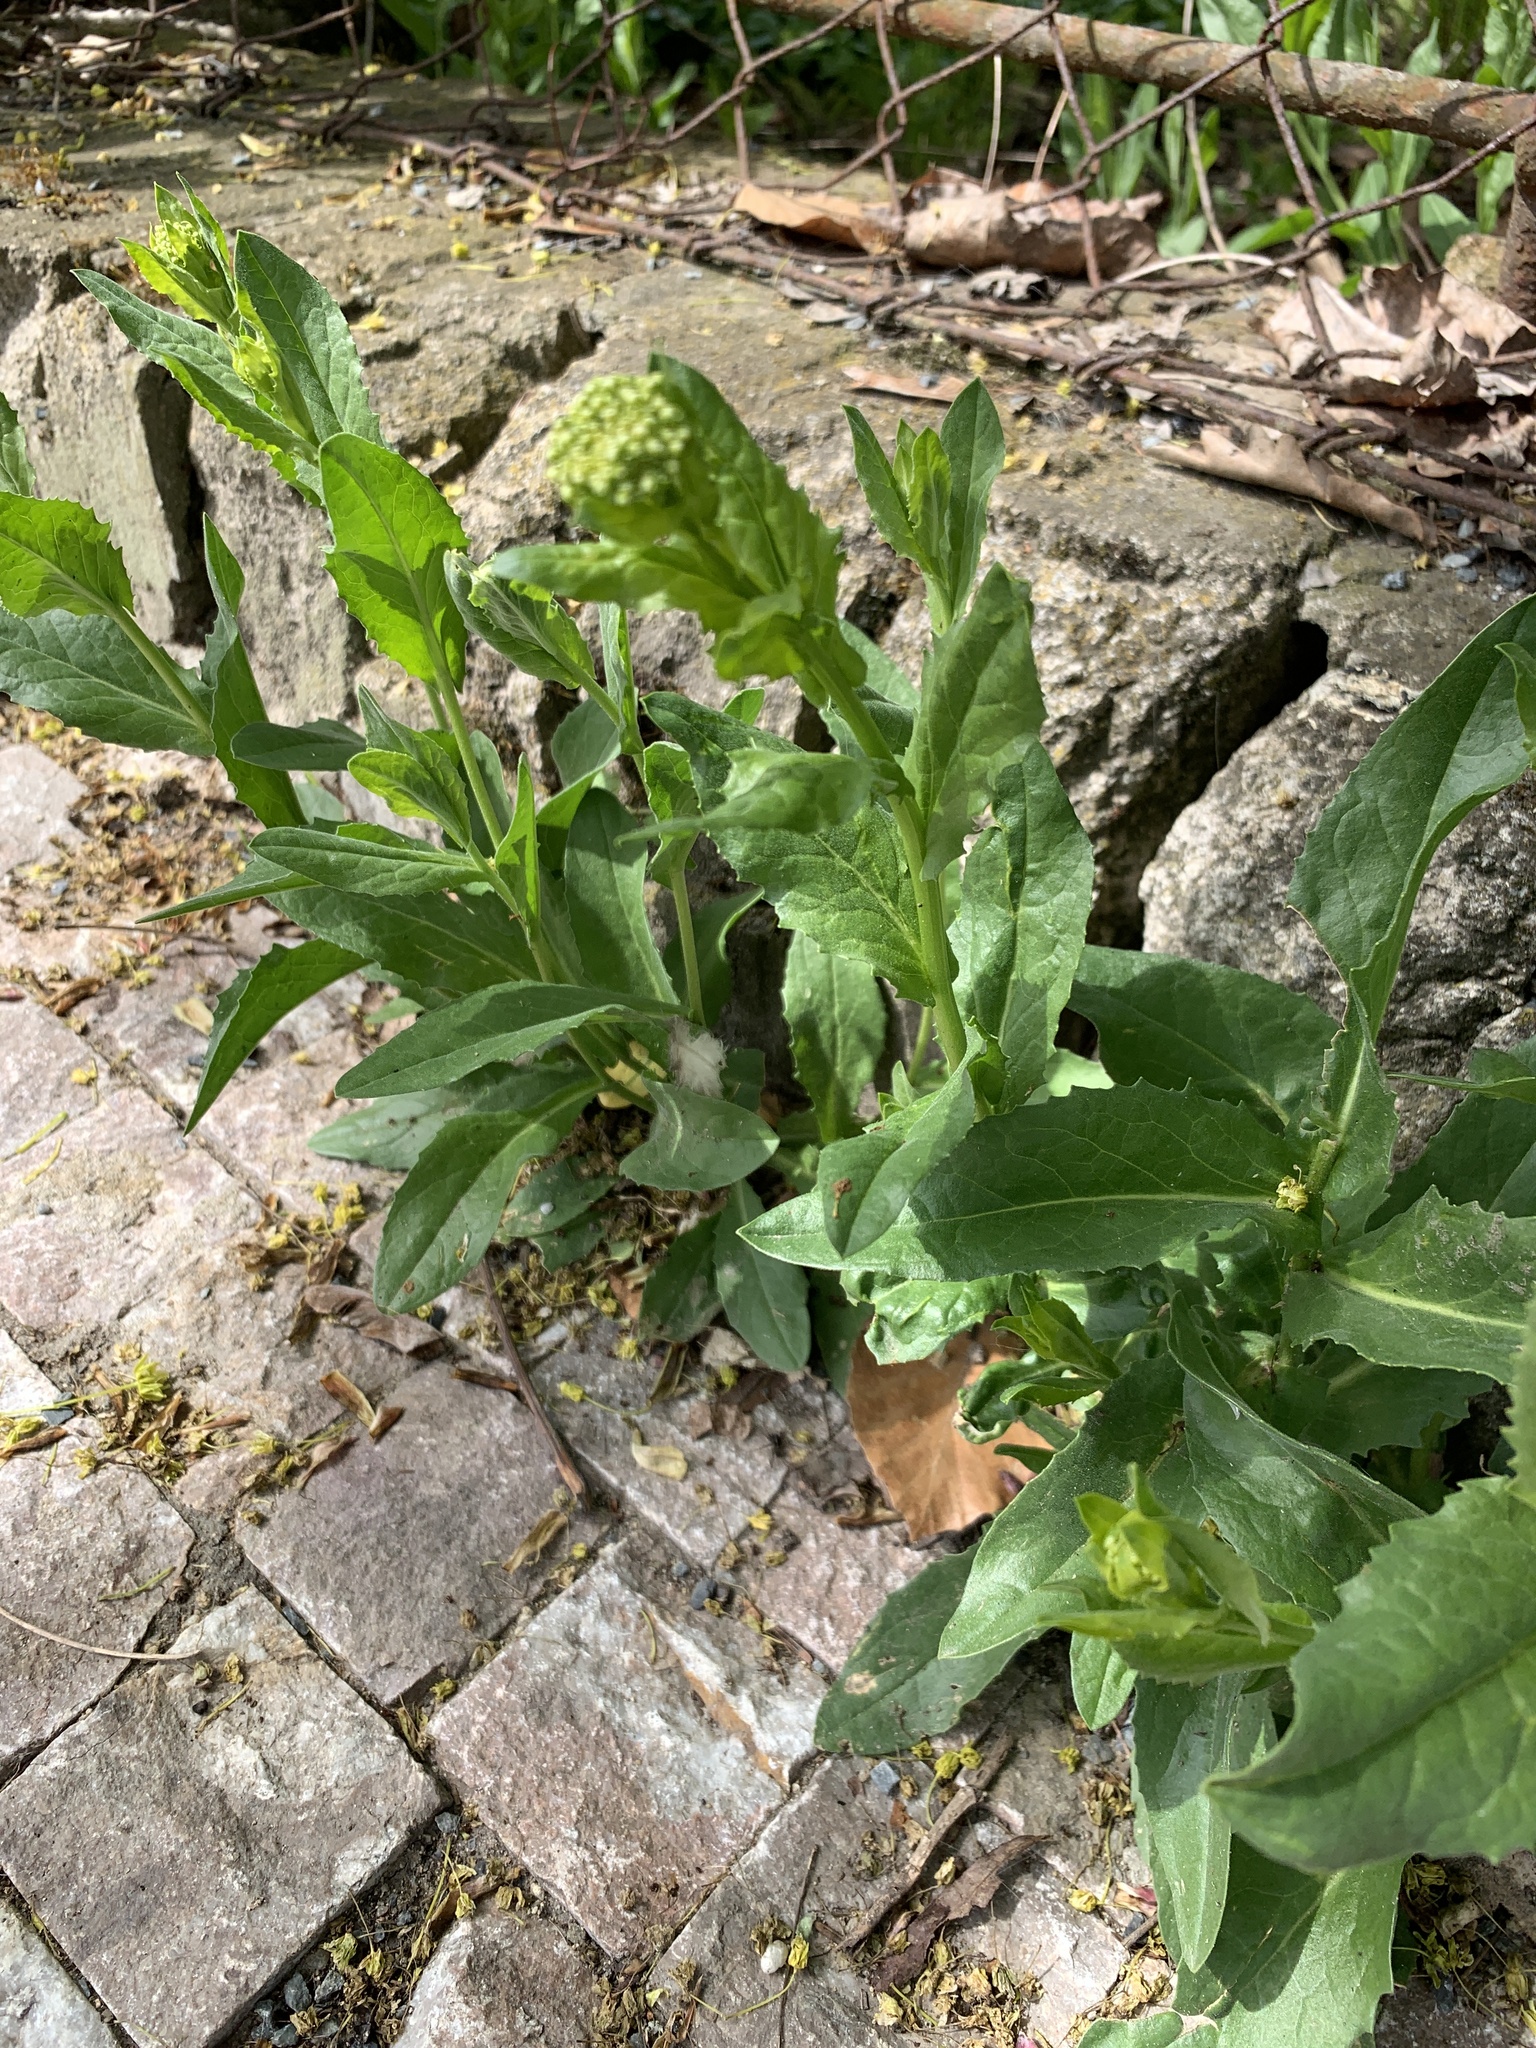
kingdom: Plantae
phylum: Tracheophyta
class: Magnoliopsida
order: Brassicales
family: Brassicaceae
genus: Lepidium
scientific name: Lepidium draba
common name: Hoary cress
